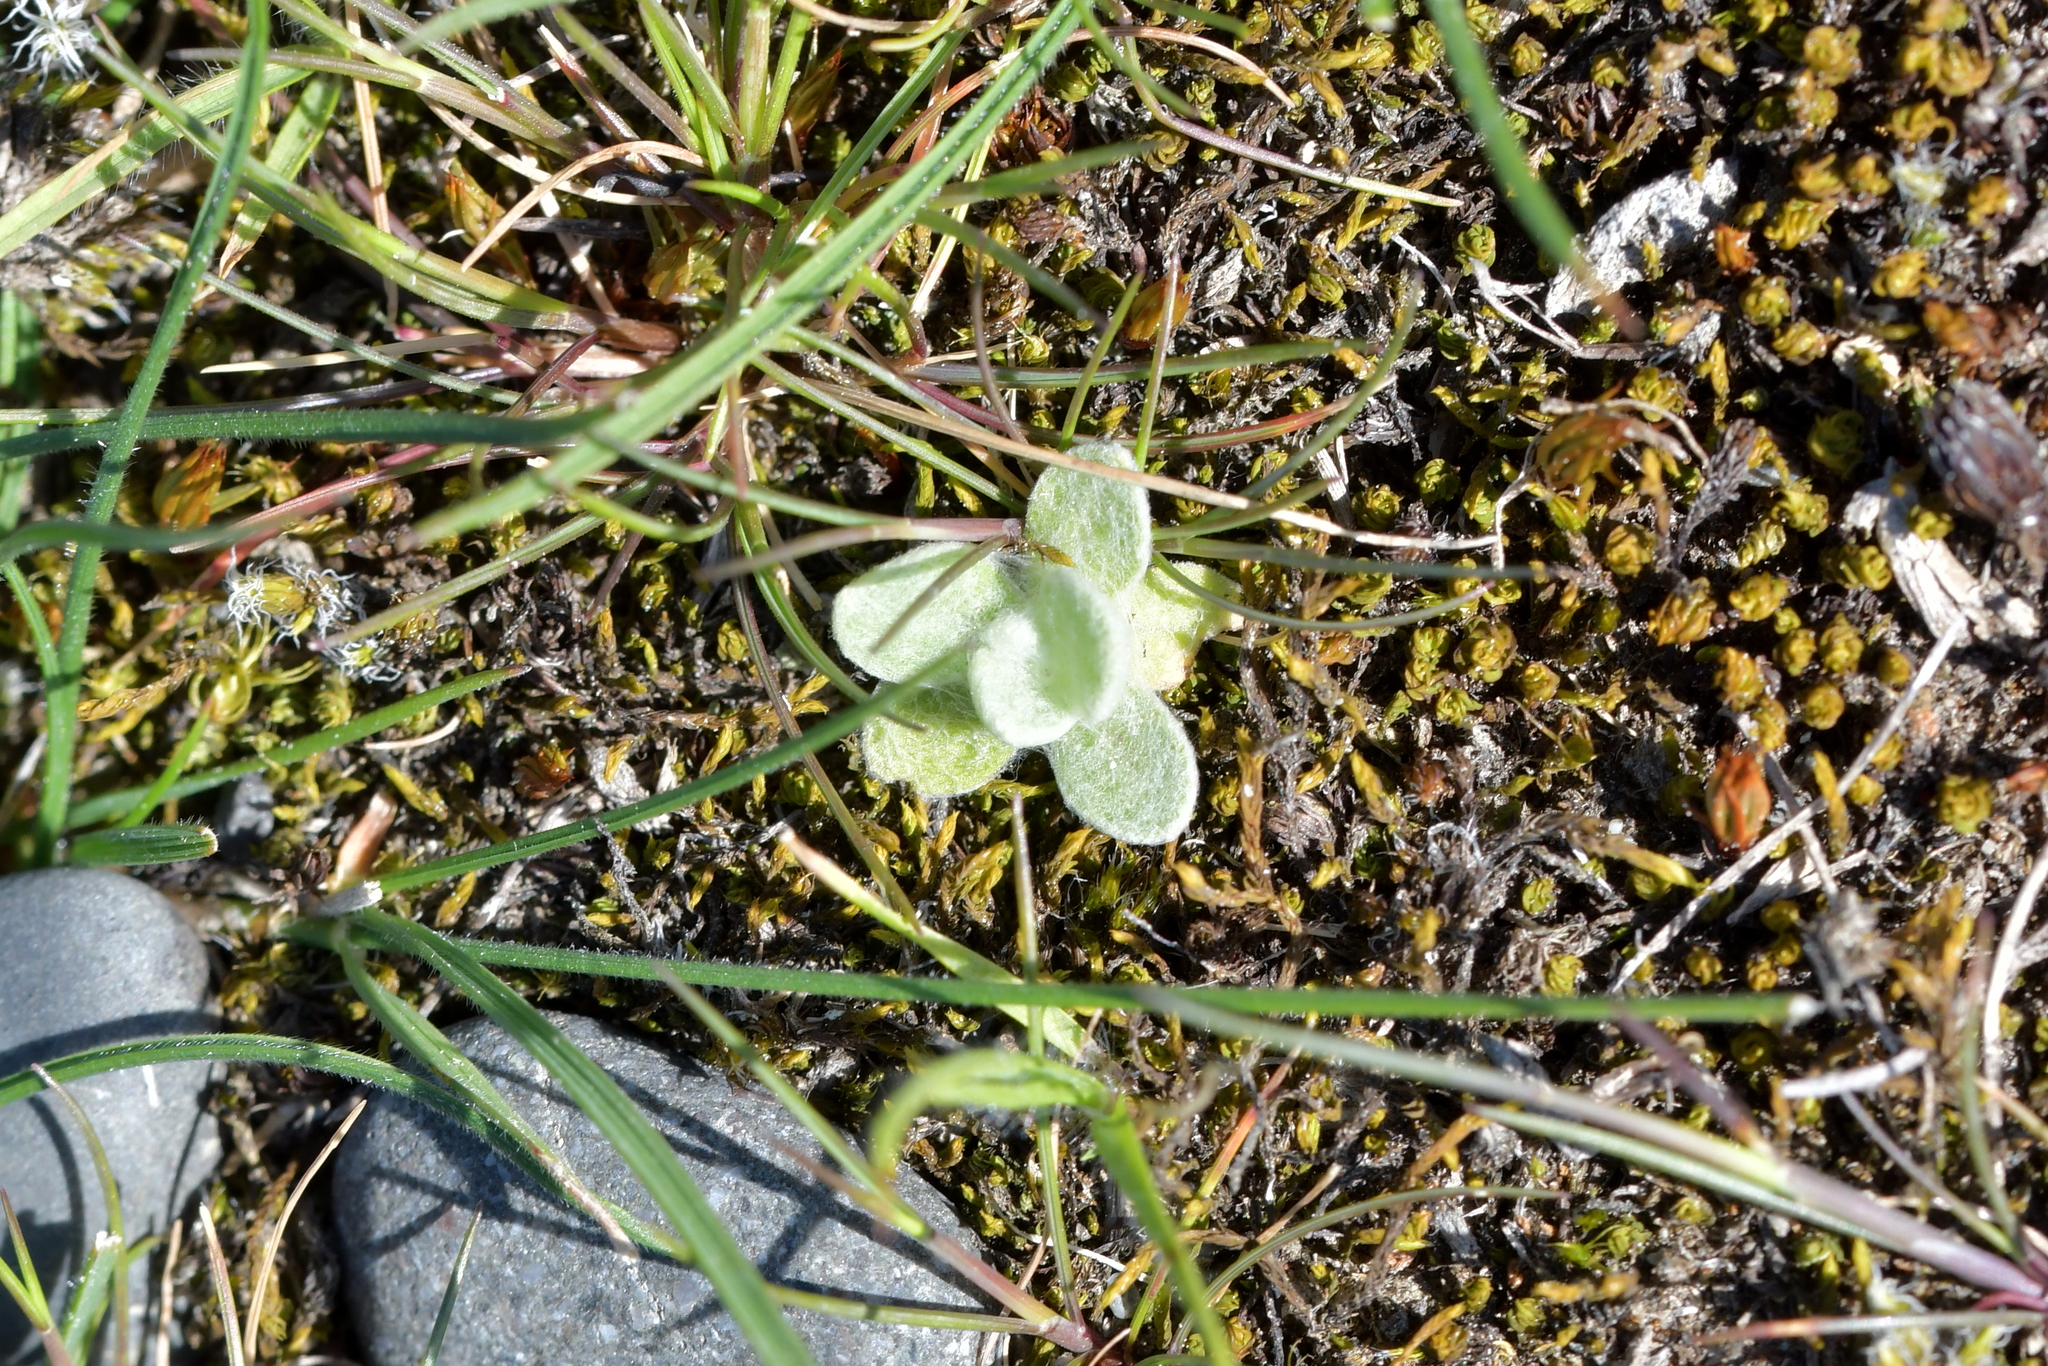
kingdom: Plantae
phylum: Tracheophyta
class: Magnoliopsida
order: Lamiales
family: Scrophulariaceae
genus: Verbascum
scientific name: Verbascum thapsus
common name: Common mullein
